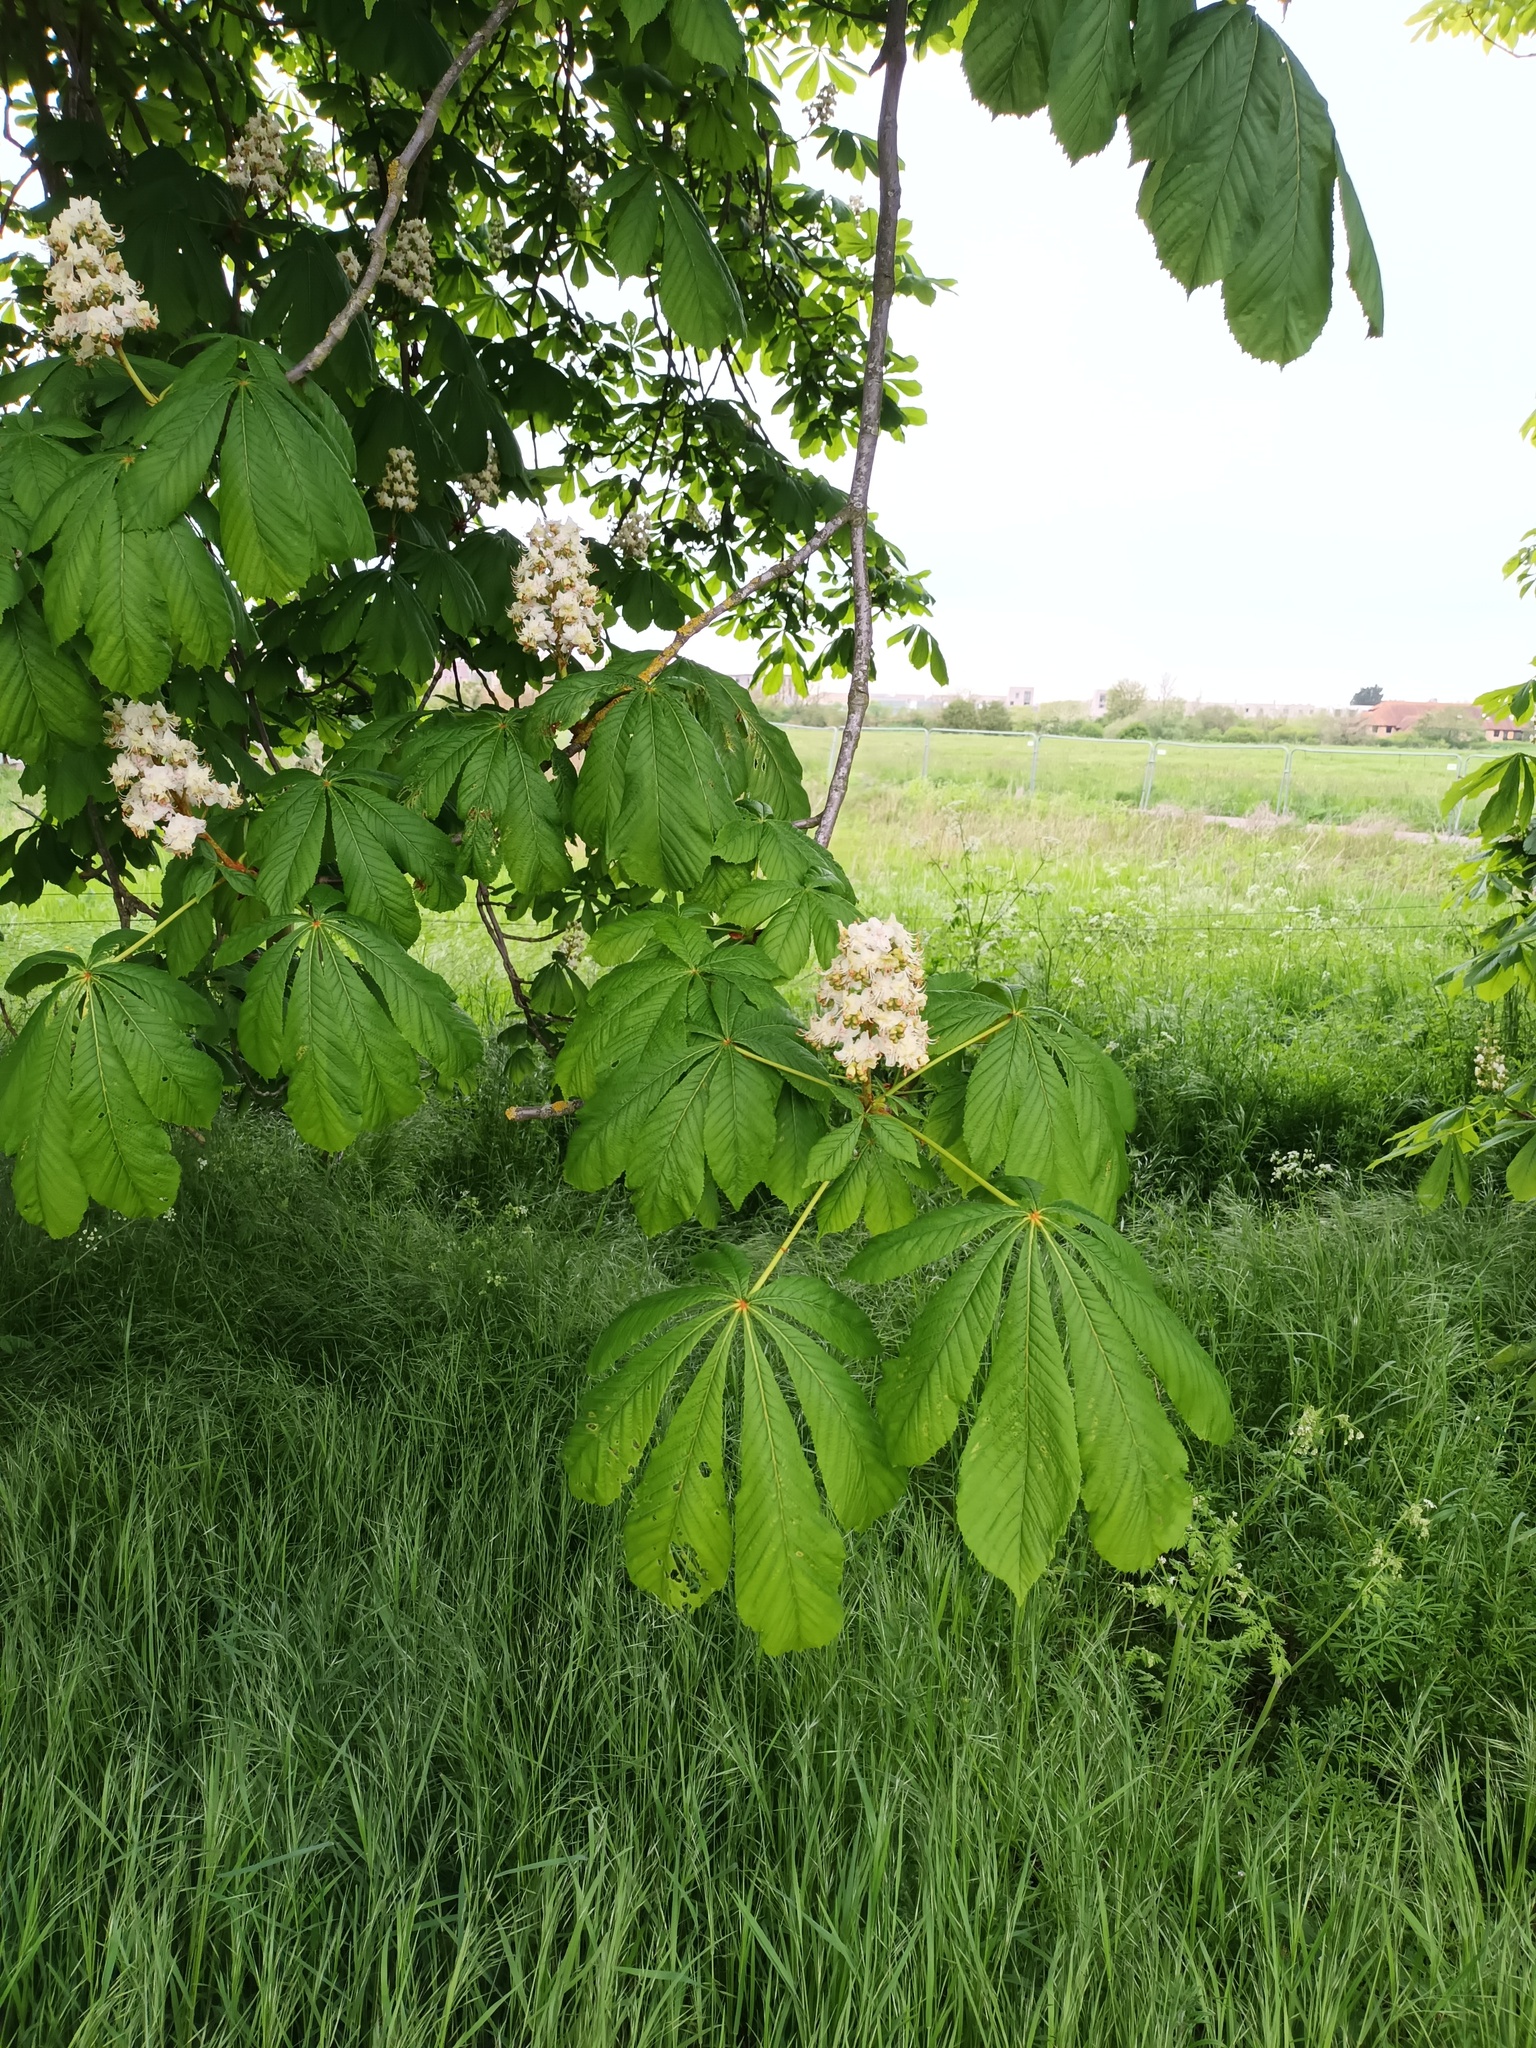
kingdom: Plantae
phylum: Tracheophyta
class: Magnoliopsida
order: Sapindales
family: Sapindaceae
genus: Aesculus
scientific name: Aesculus hippocastanum
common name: Horse-chestnut
